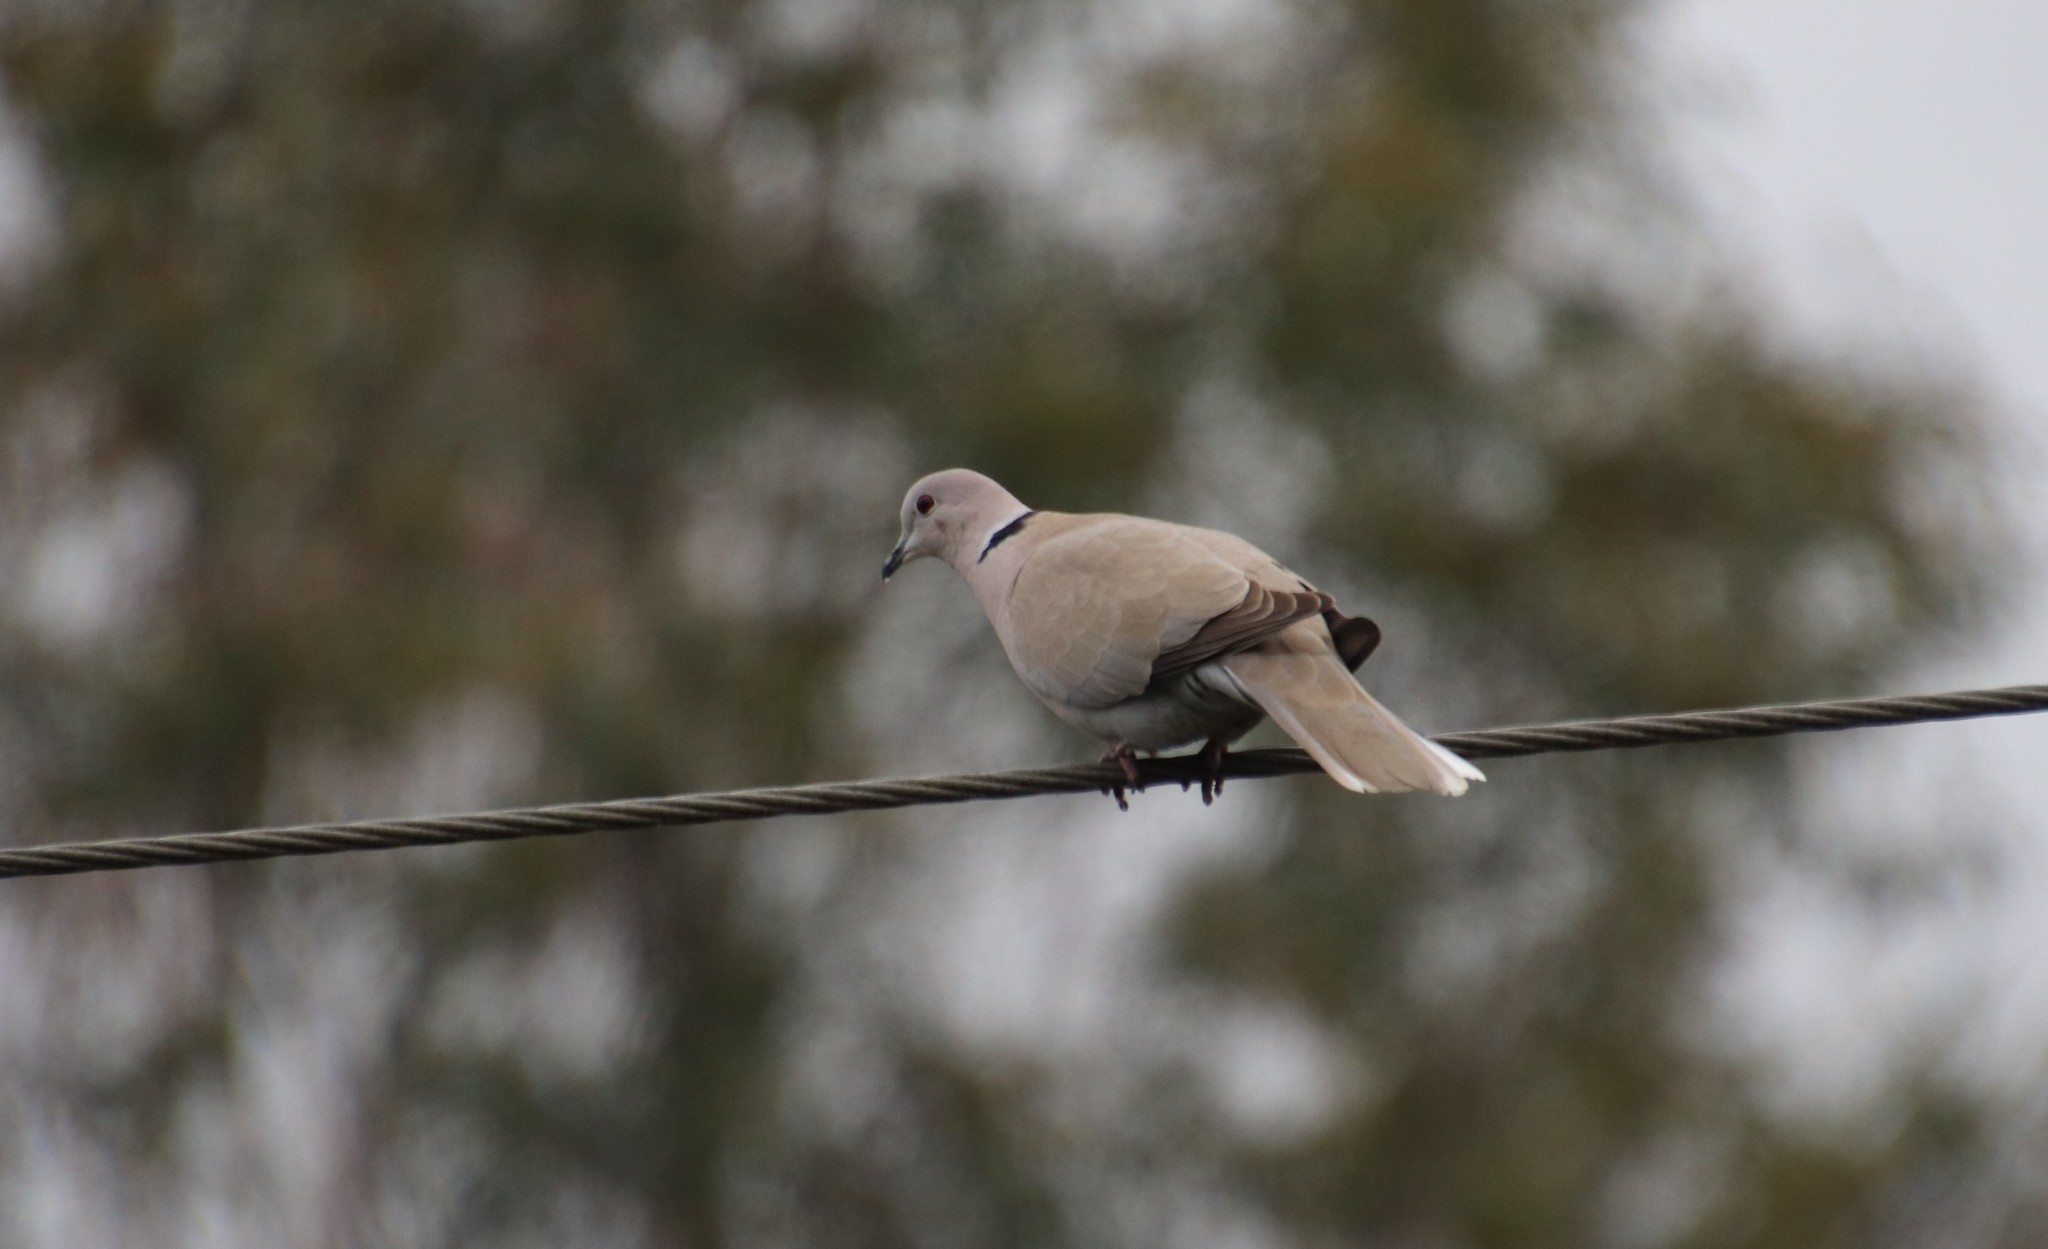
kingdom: Animalia
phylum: Chordata
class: Aves
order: Columbiformes
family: Columbidae
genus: Streptopelia
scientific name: Streptopelia decaocto
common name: Eurasian collared dove
